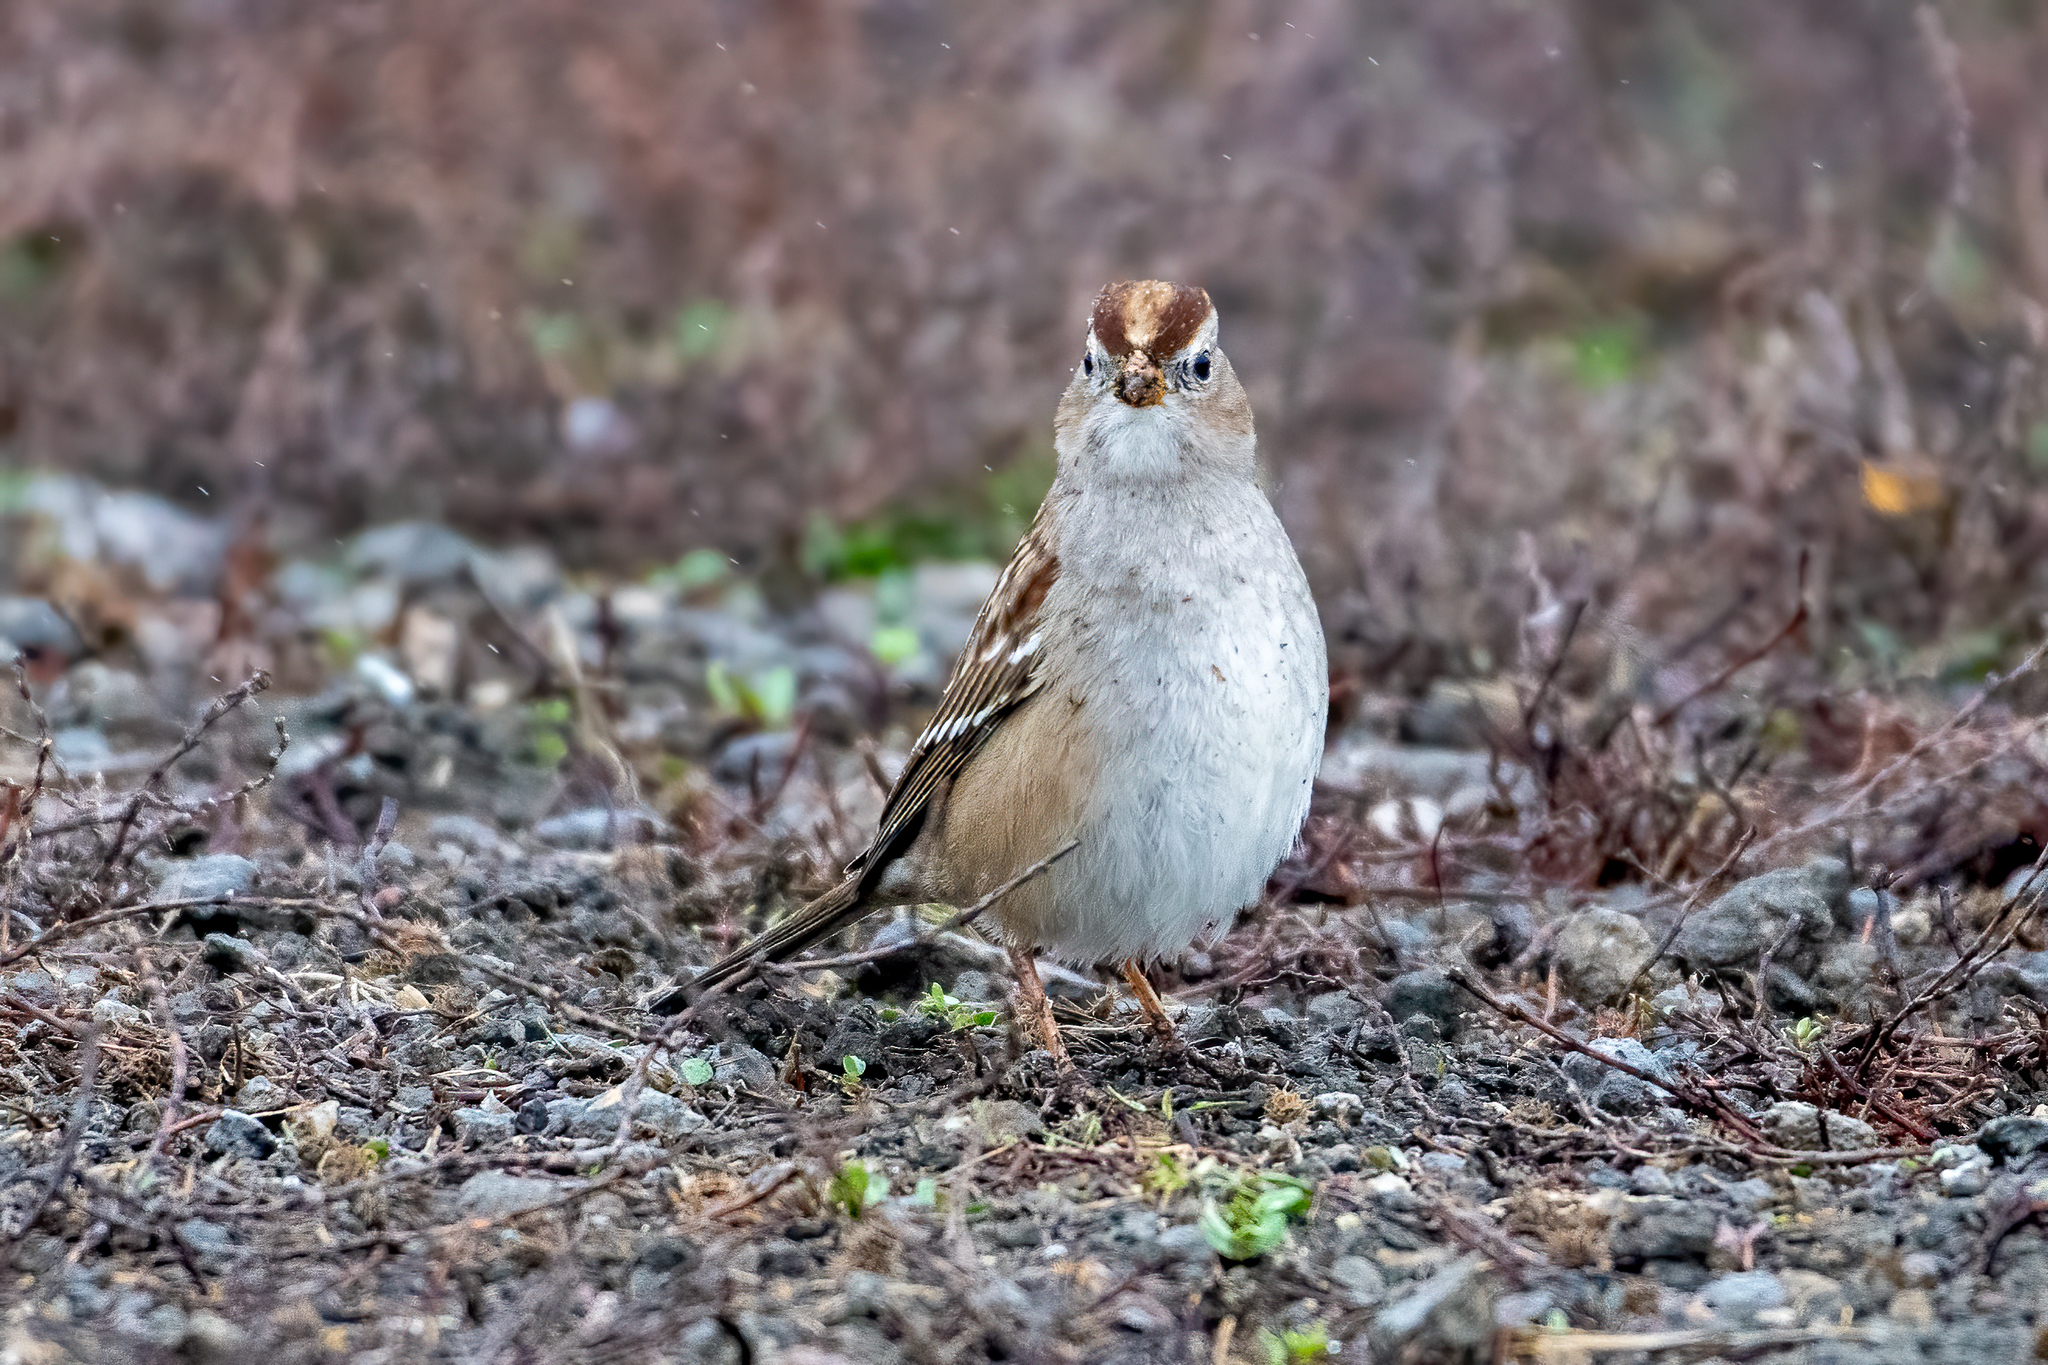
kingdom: Animalia
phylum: Chordata
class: Aves
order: Passeriformes
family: Passerellidae
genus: Zonotrichia
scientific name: Zonotrichia leucophrys
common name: White-crowned sparrow
